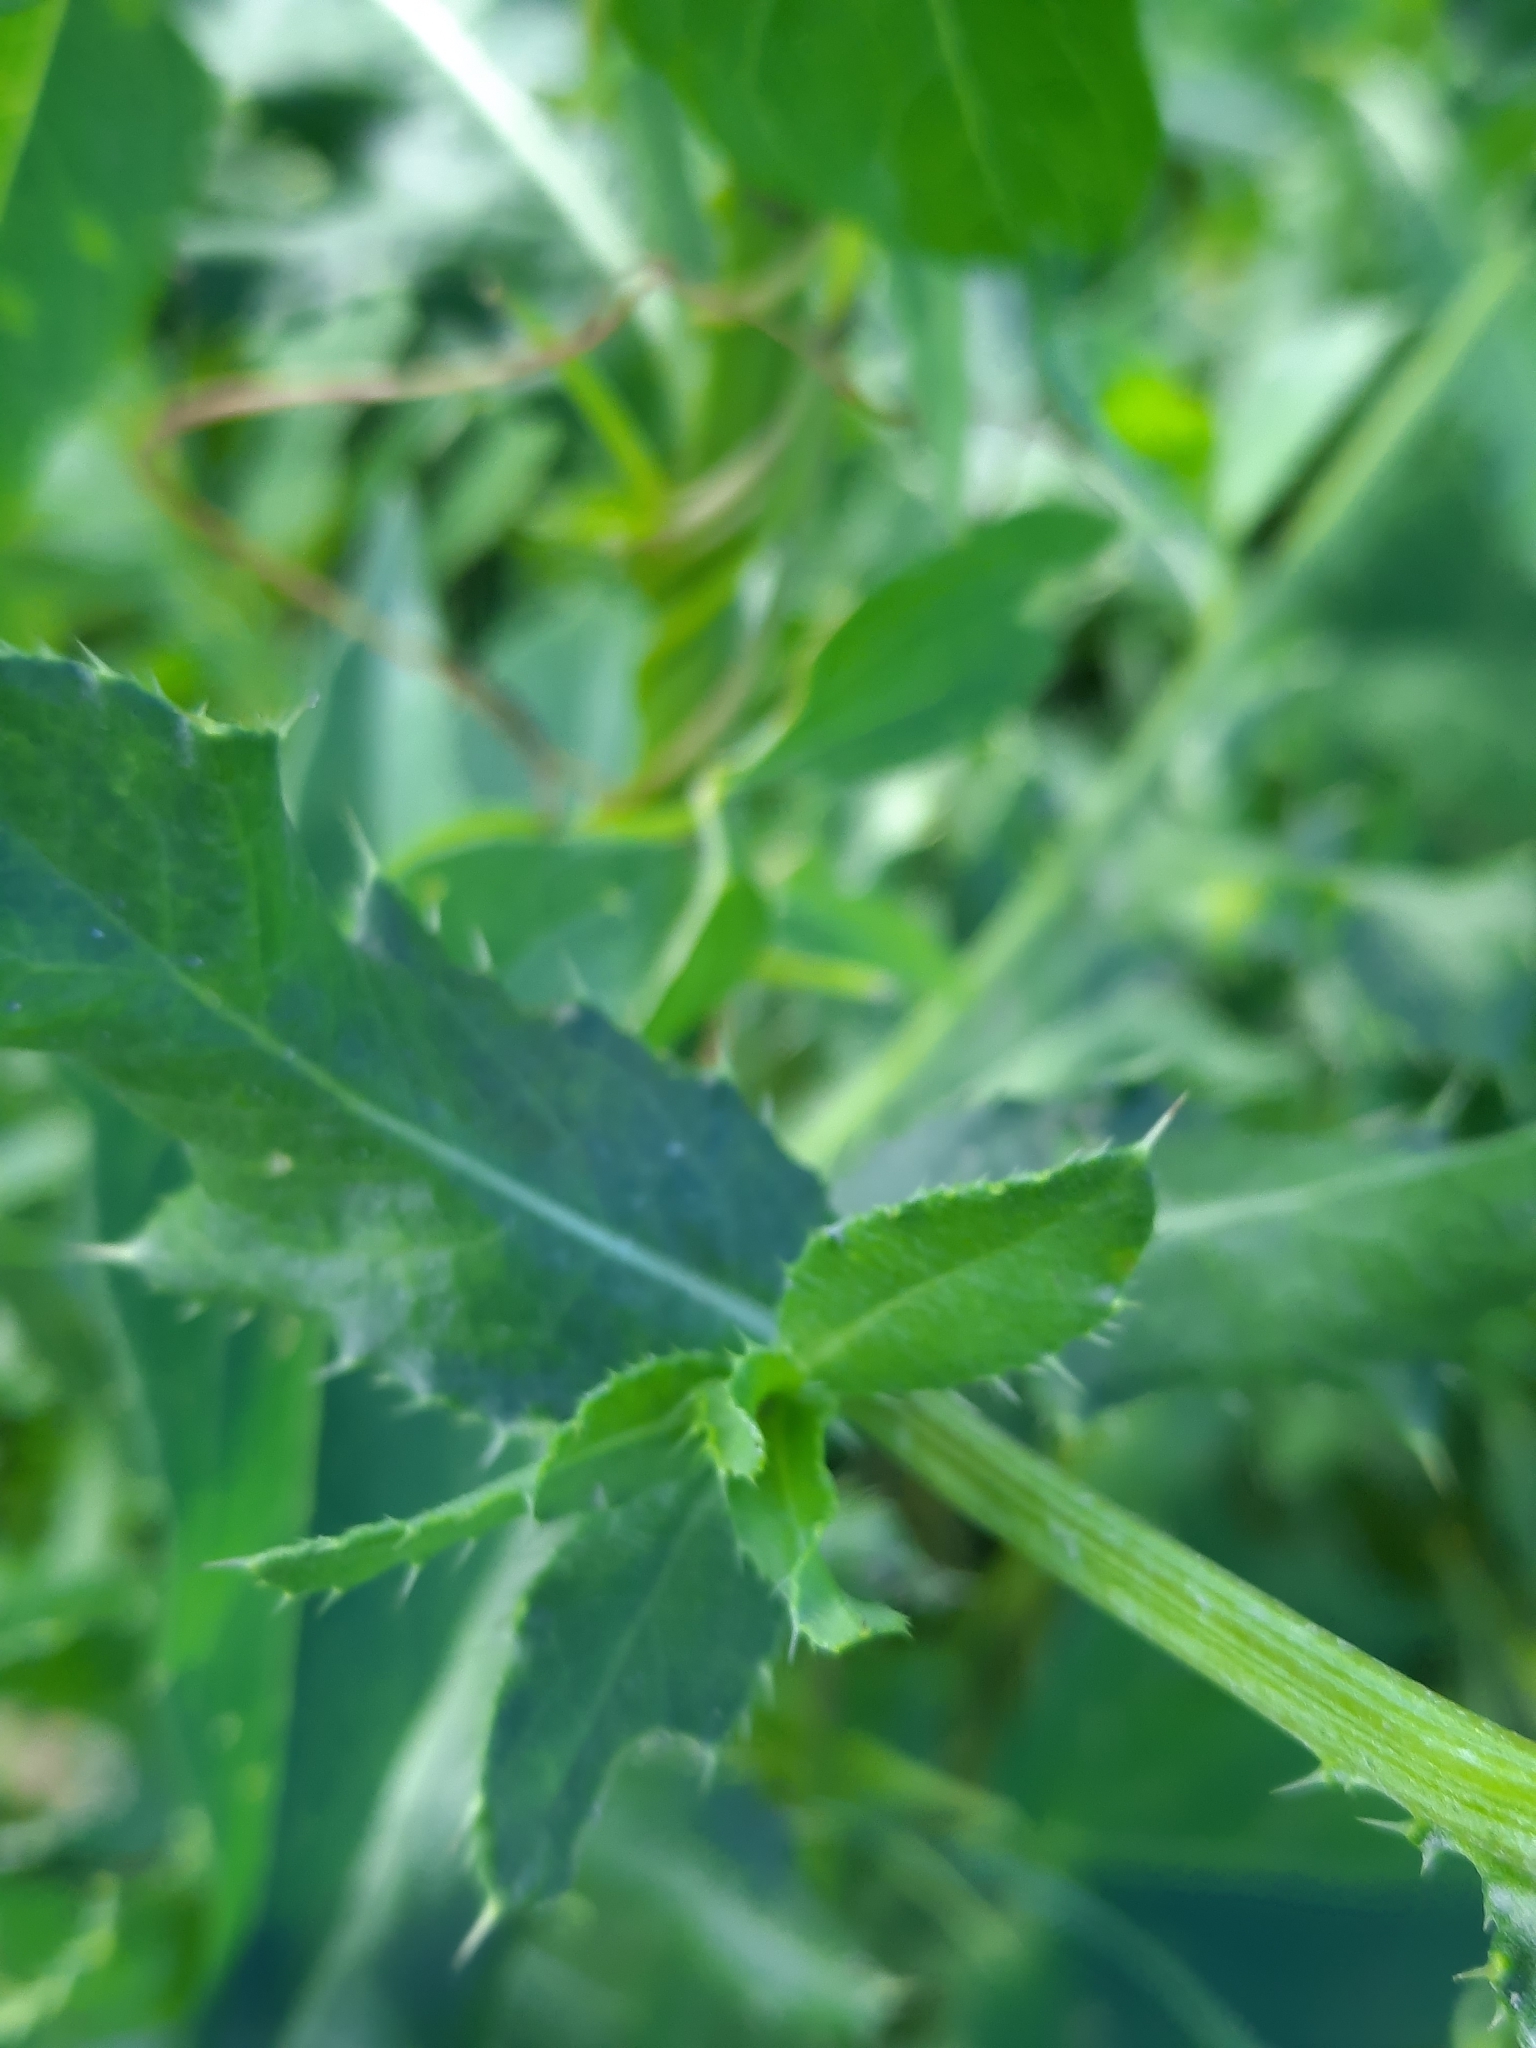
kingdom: Plantae
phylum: Tracheophyta
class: Magnoliopsida
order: Asterales
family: Asteraceae
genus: Cirsium
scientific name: Cirsium arvense
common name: Creeping thistle
